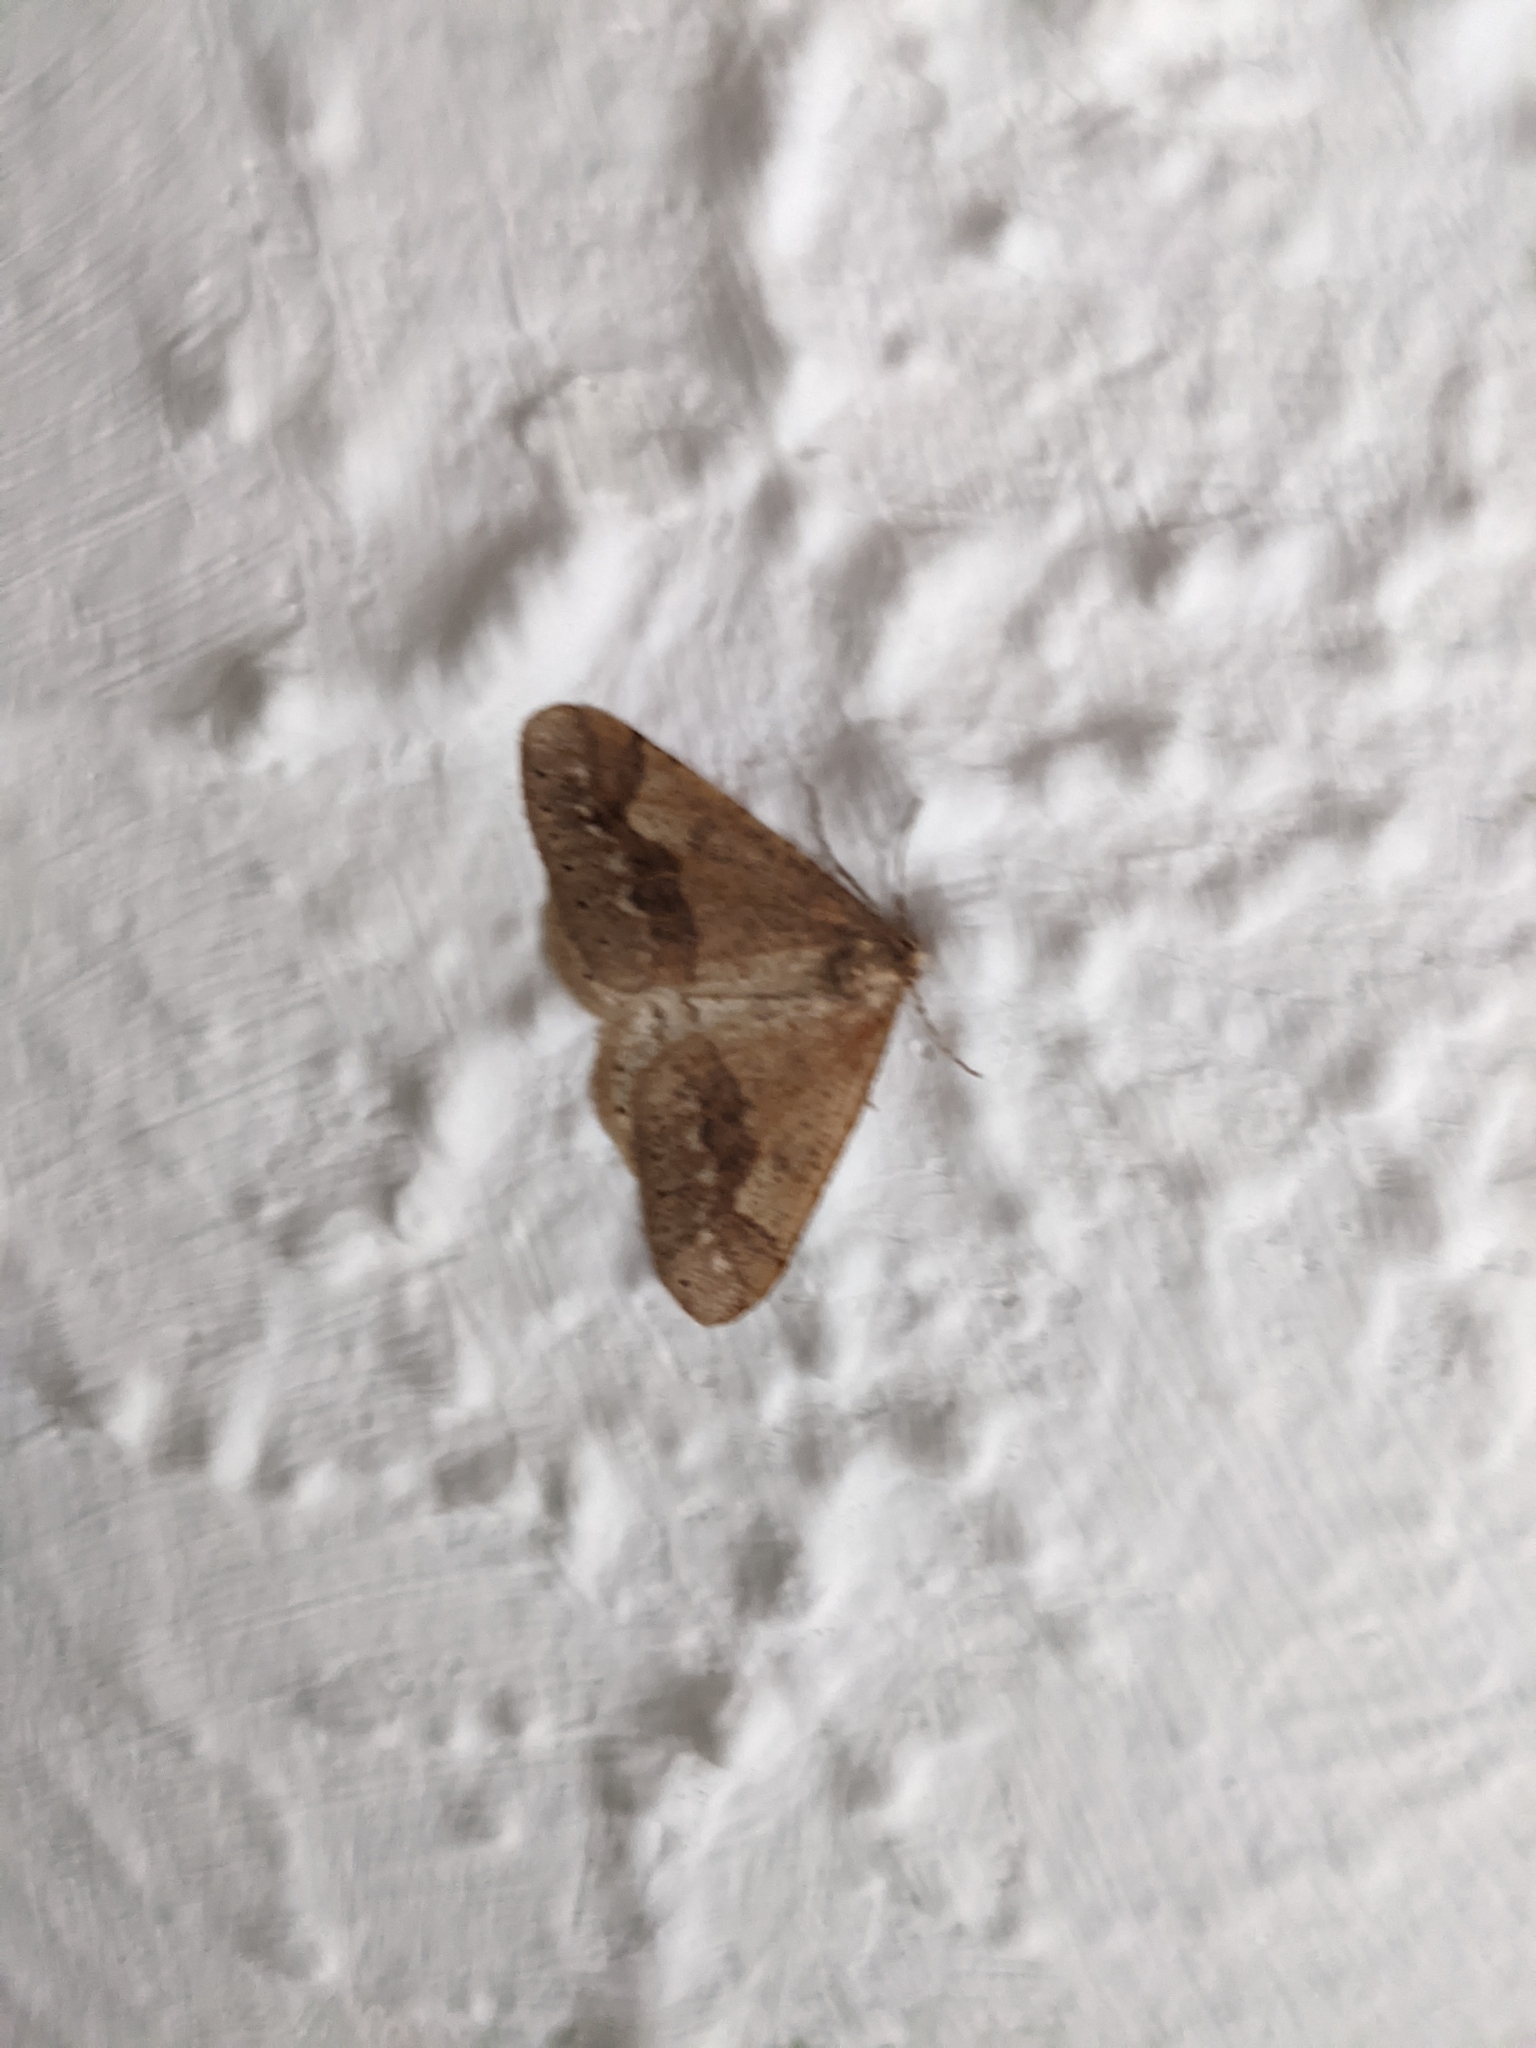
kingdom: Animalia
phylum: Arthropoda
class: Insecta
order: Lepidoptera
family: Geometridae
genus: Agriopis
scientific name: Agriopis marginaria
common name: Dotted border
